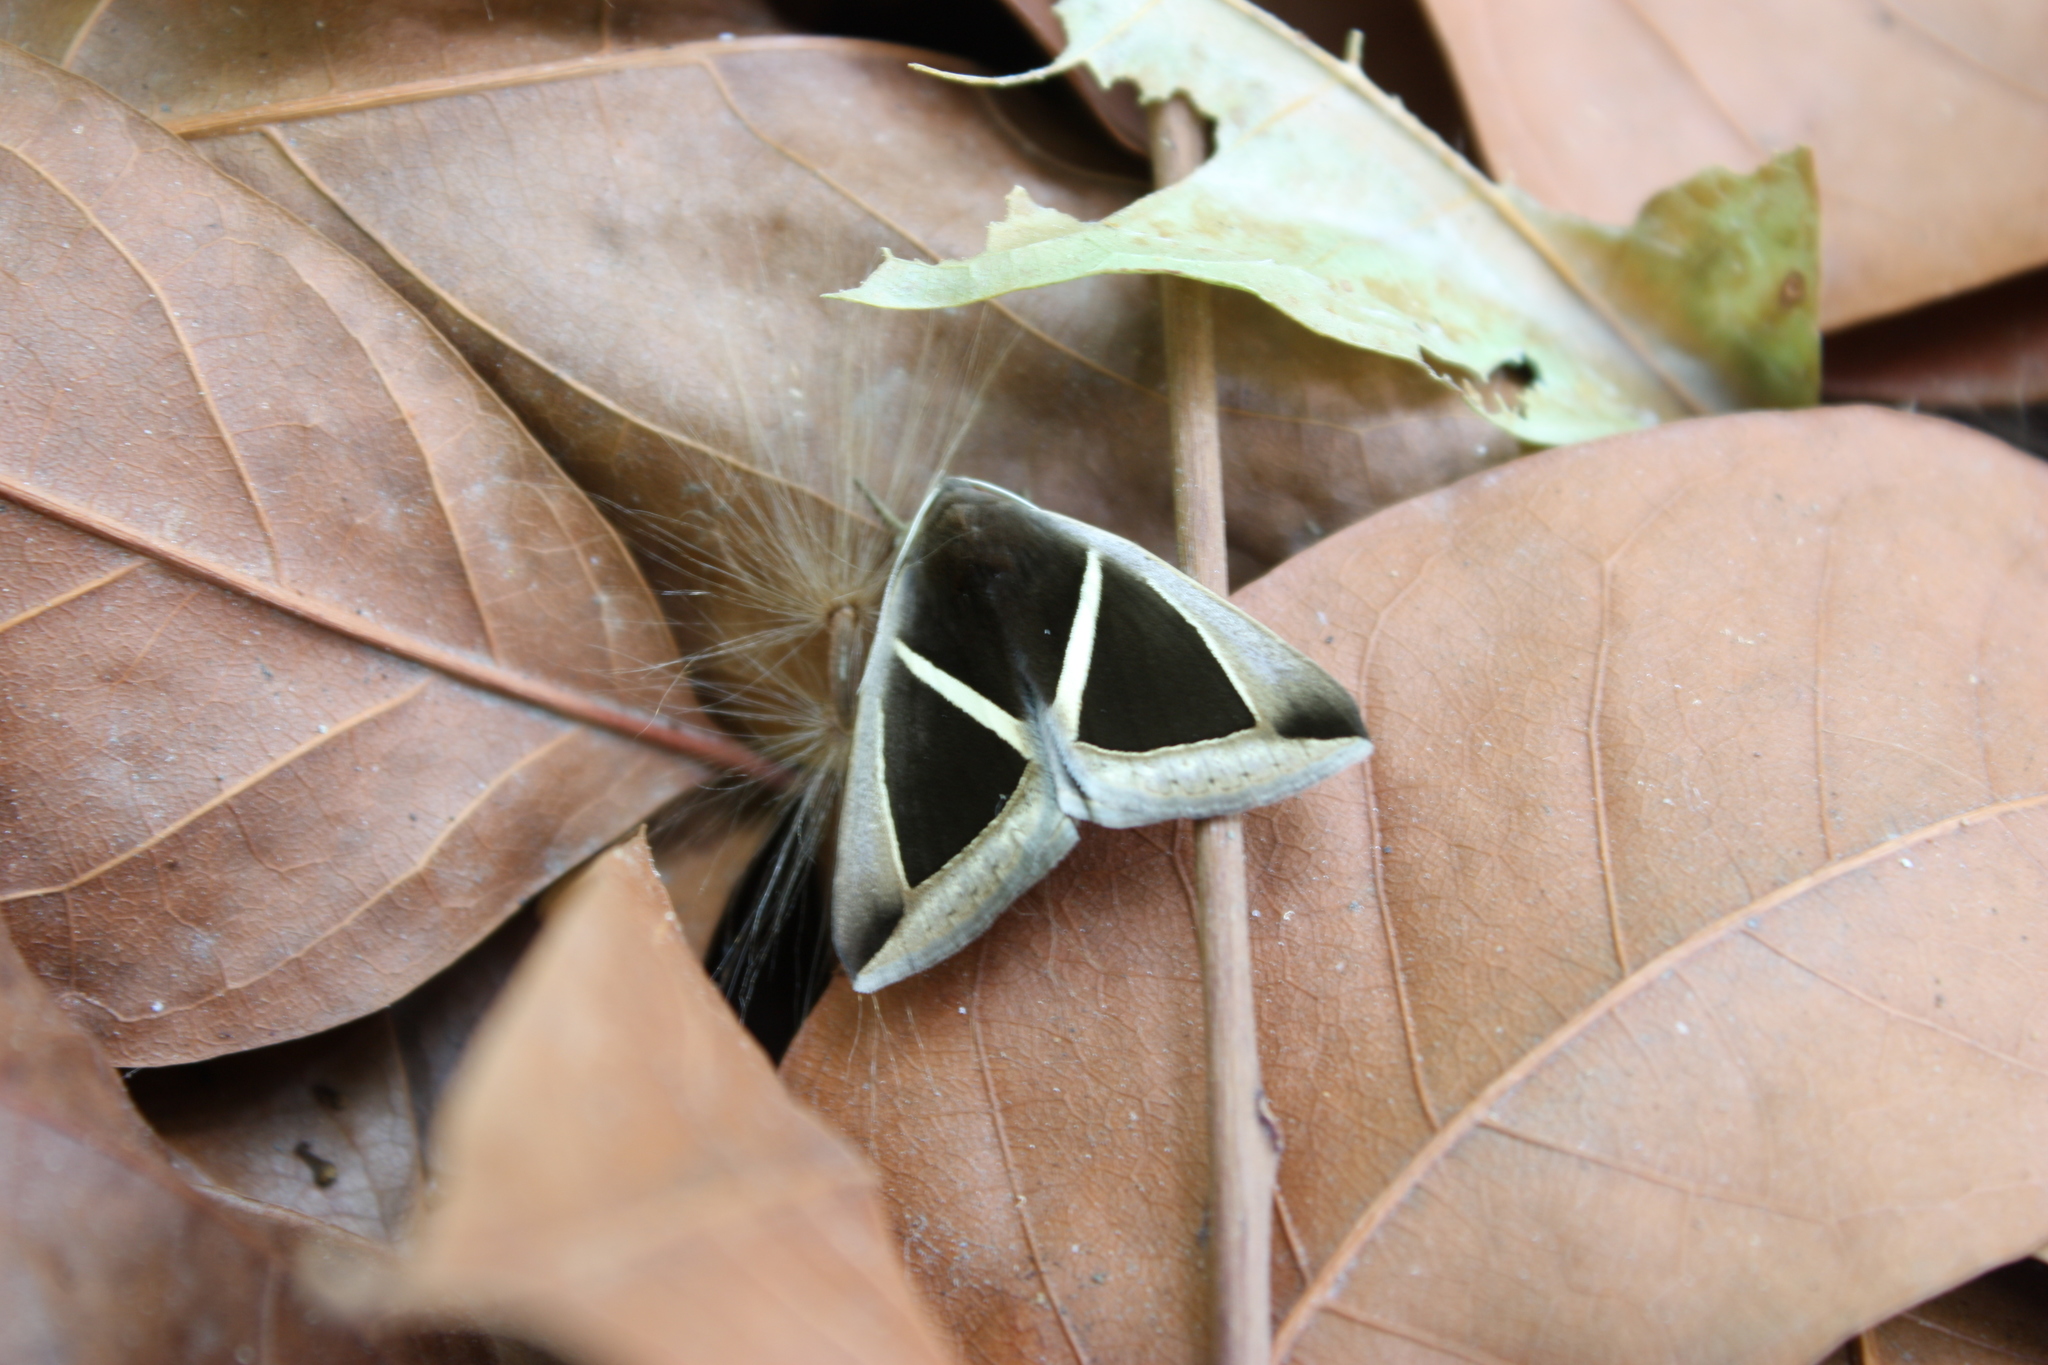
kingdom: Animalia
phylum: Arthropoda
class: Insecta
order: Lepidoptera
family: Erebidae
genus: Fodina
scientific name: Fodina kosemponis
